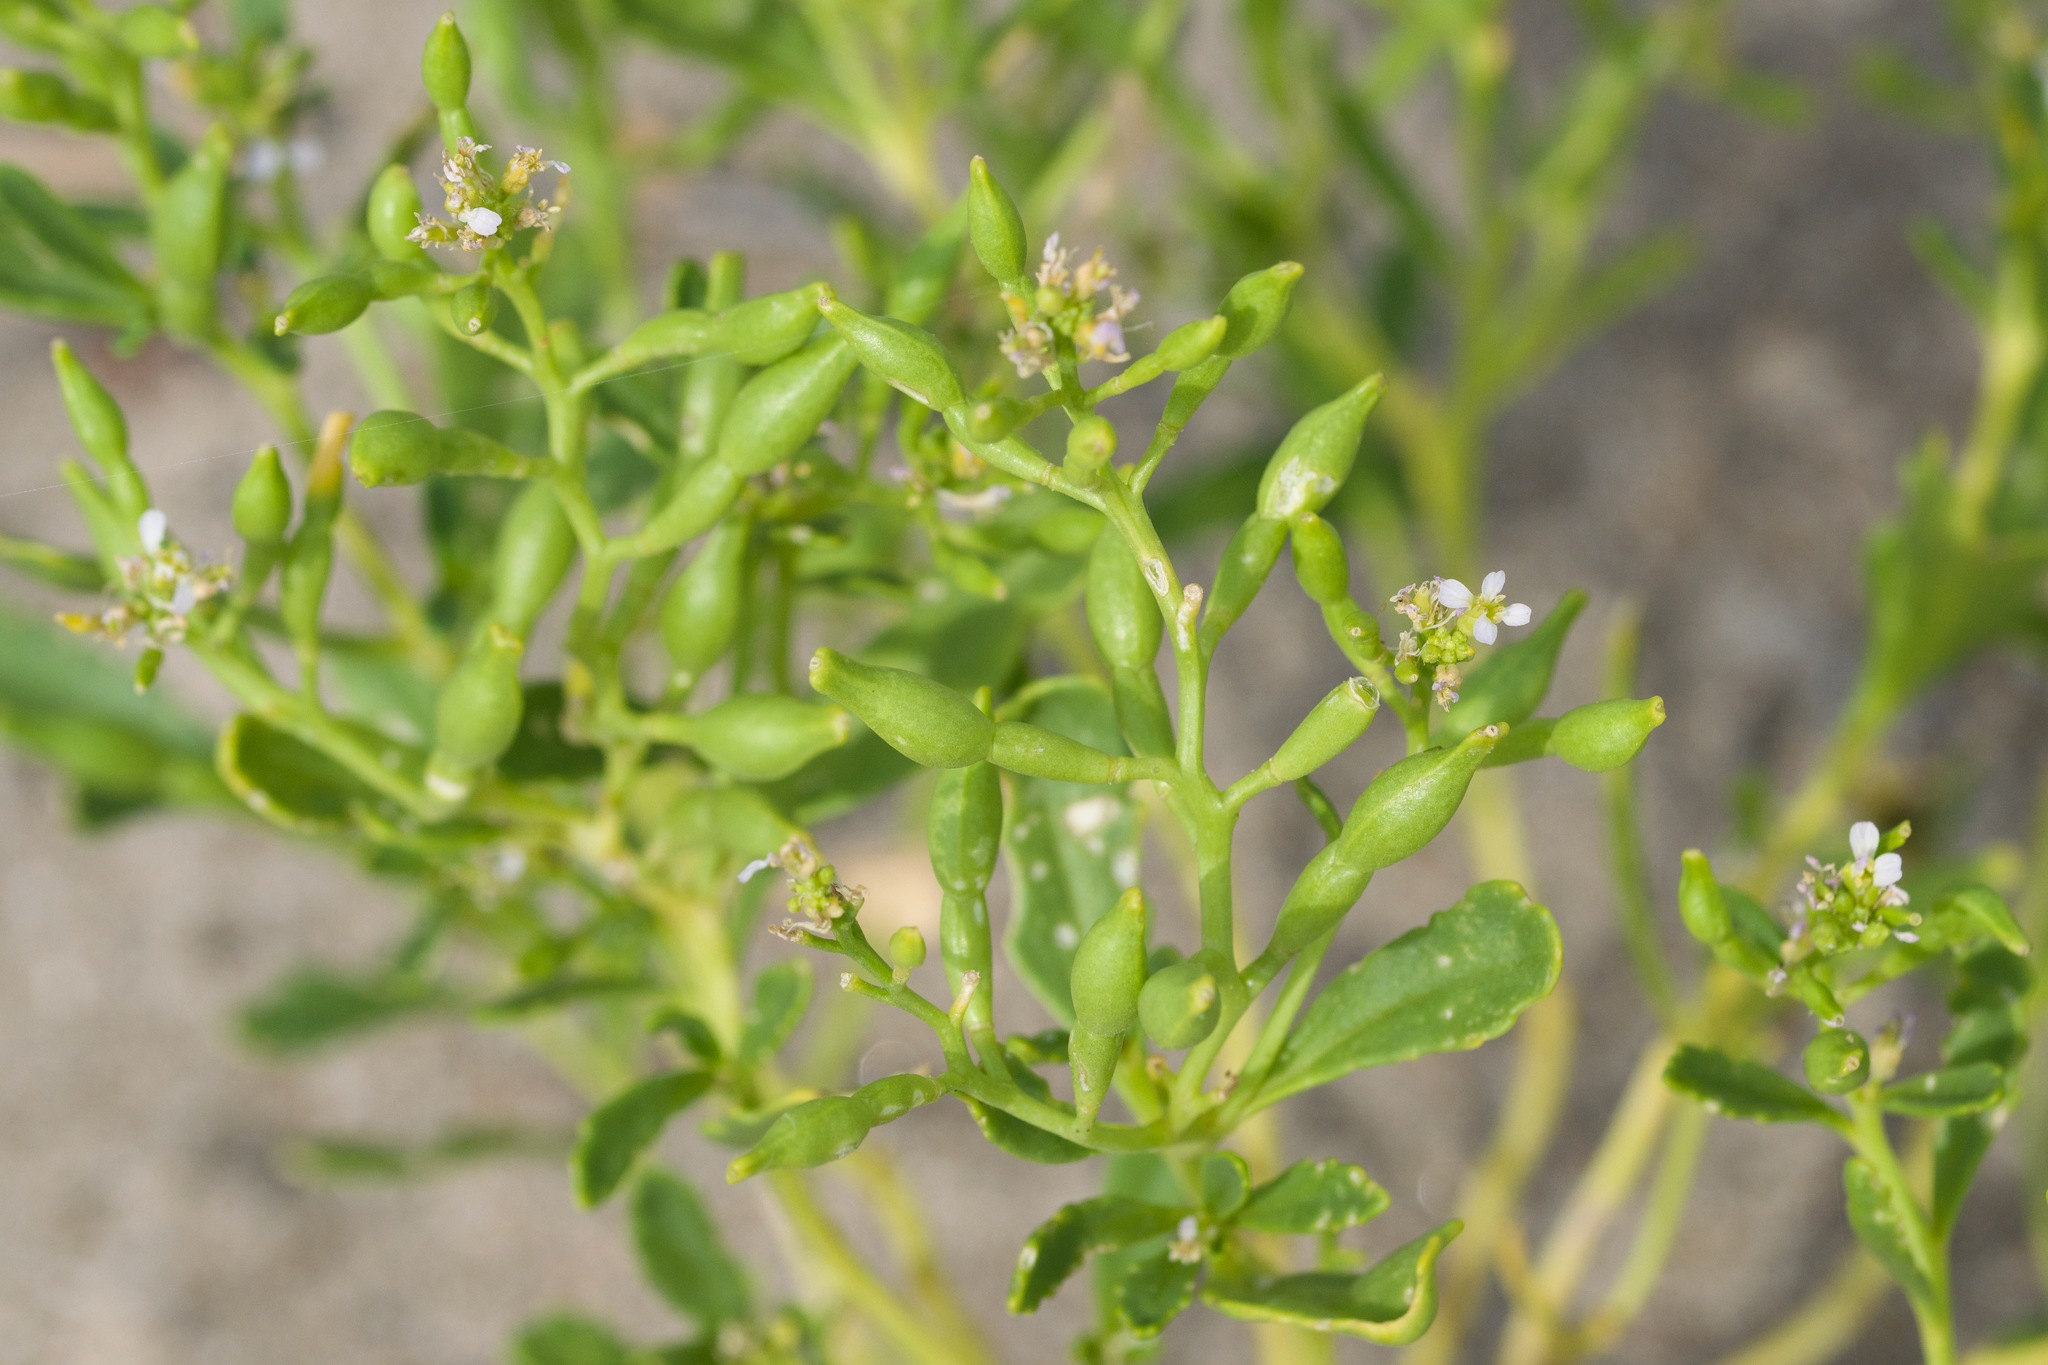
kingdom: Plantae
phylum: Tracheophyta
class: Magnoliopsida
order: Brassicales
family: Brassicaceae
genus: Cakile
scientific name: Cakile edentula
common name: American sea rocket
